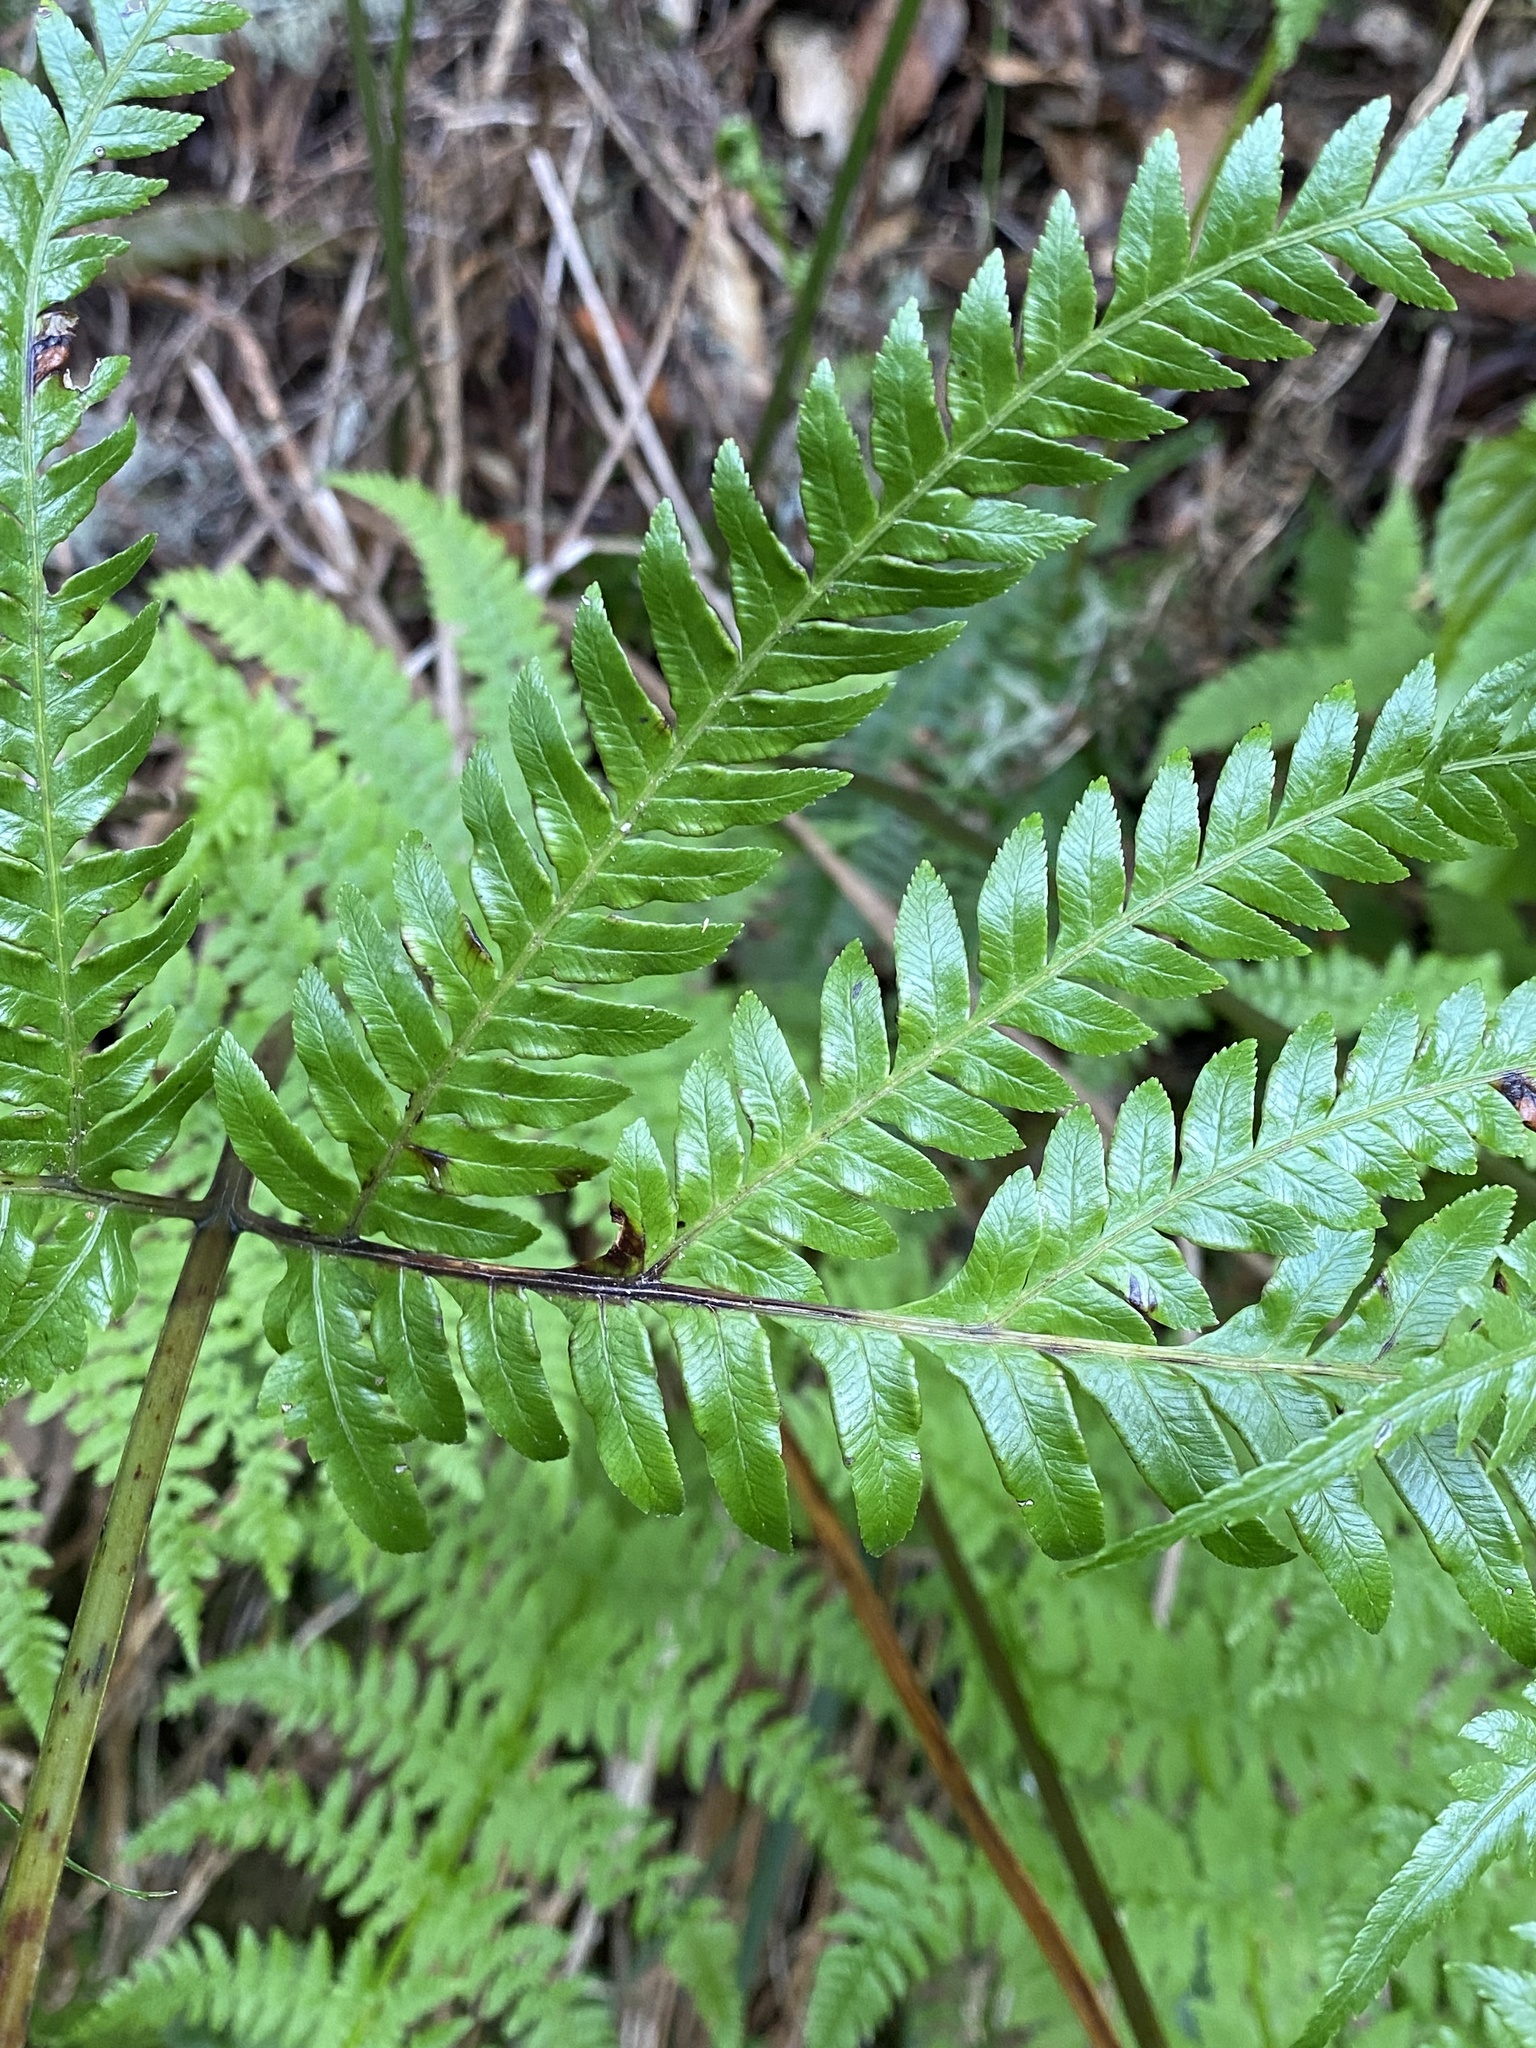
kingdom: Plantae
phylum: Tracheophyta
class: Polypodiopsida
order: Polypodiales
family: Pteridaceae
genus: Pteris
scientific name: Pteris incompleta
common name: Laurisilva brake
